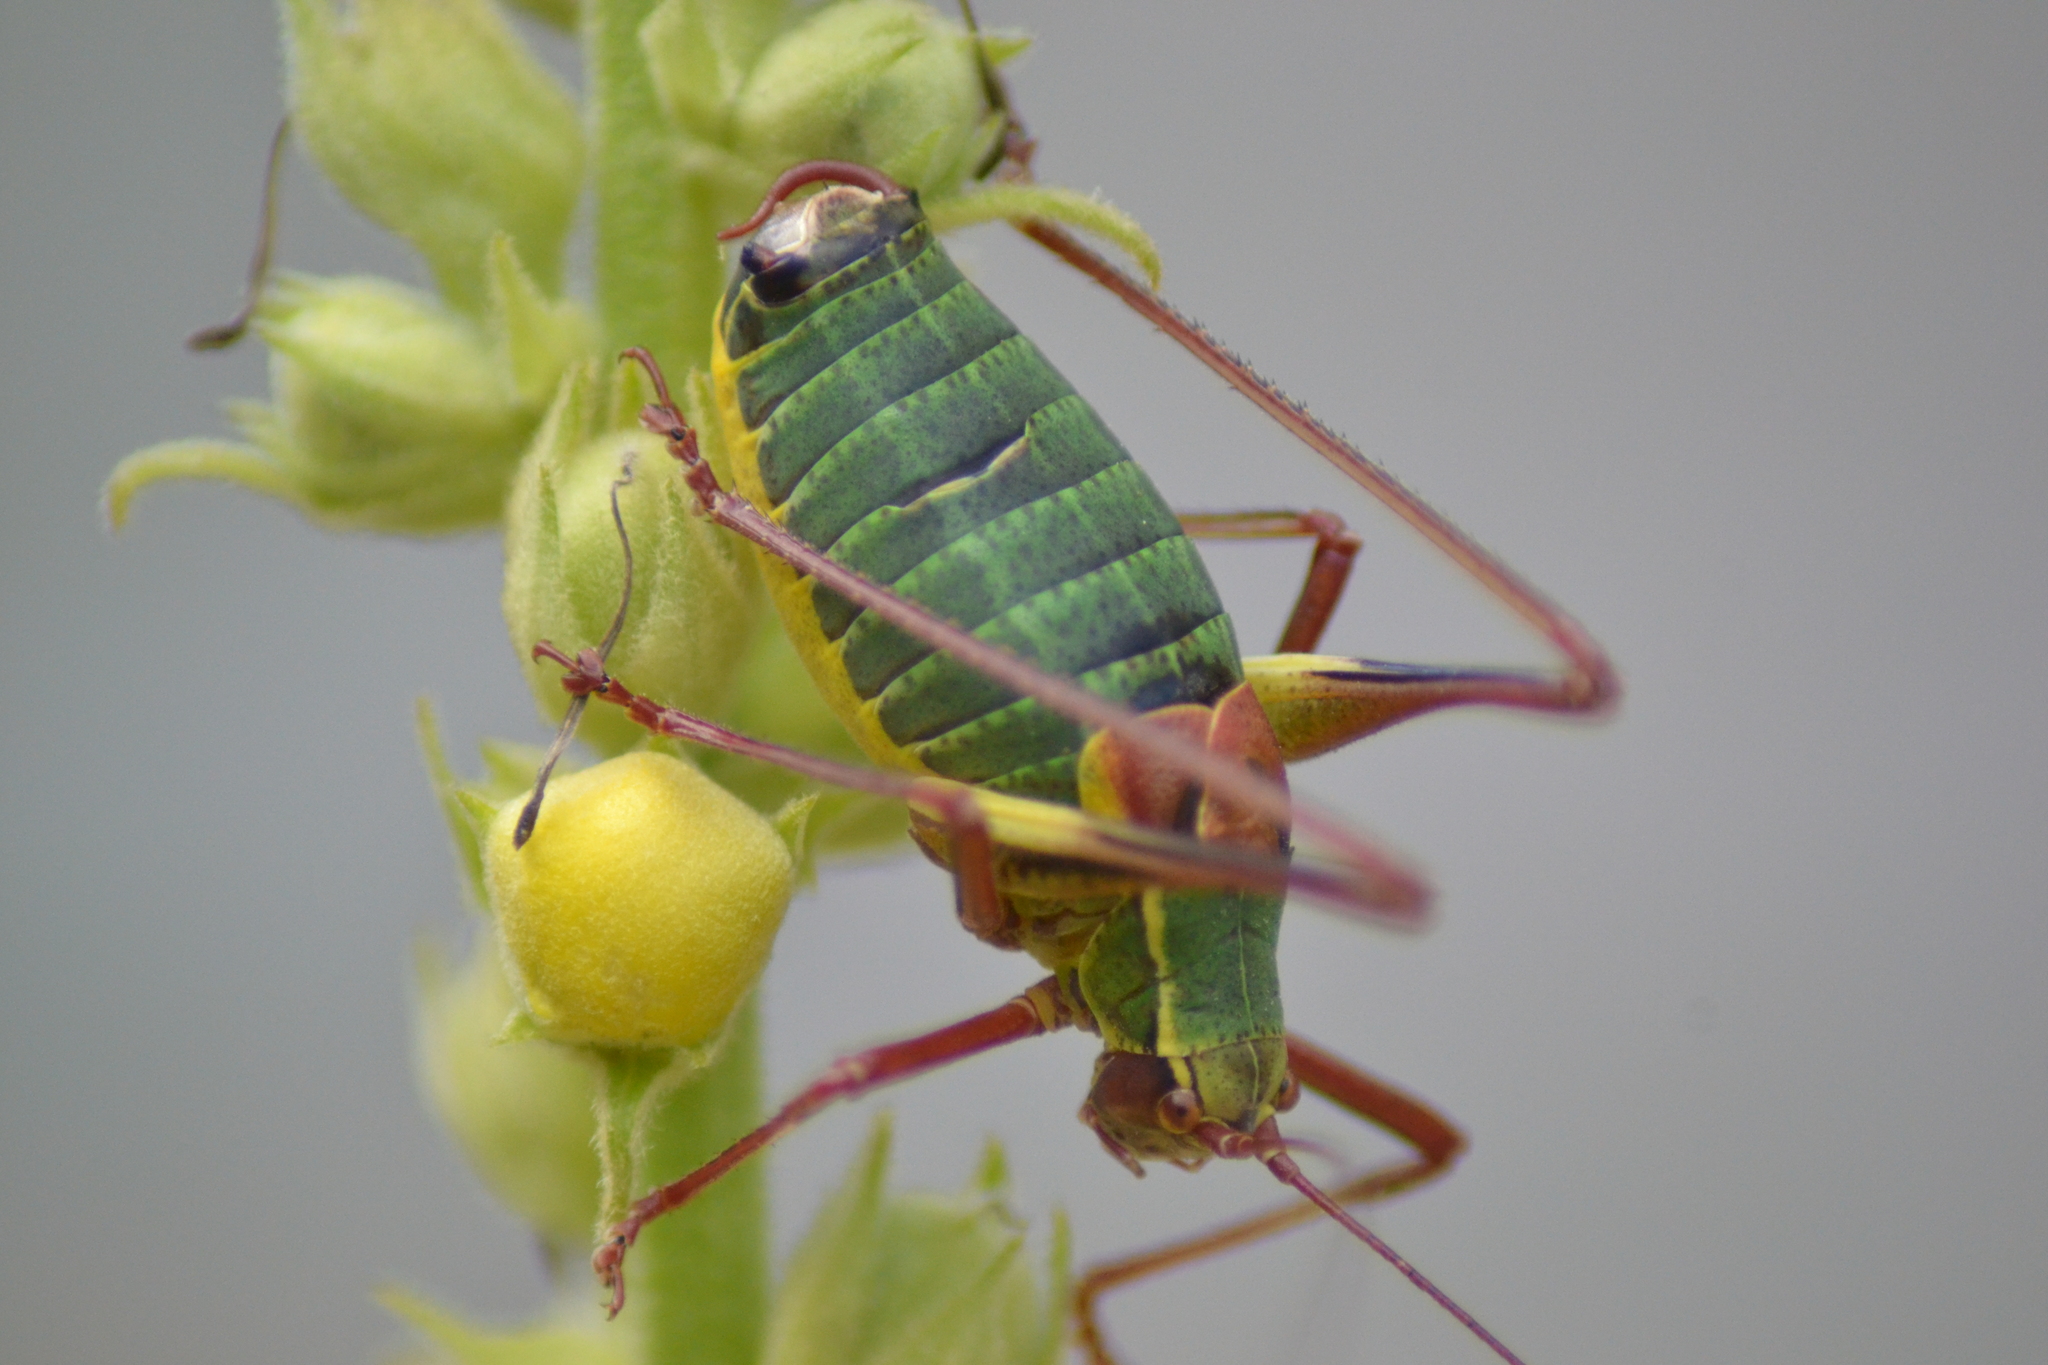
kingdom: Animalia
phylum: Arthropoda
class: Insecta
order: Orthoptera
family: Tettigoniidae
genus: Barbitistes
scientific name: Barbitistes obtusus
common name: Alpine saw bush-cricket
